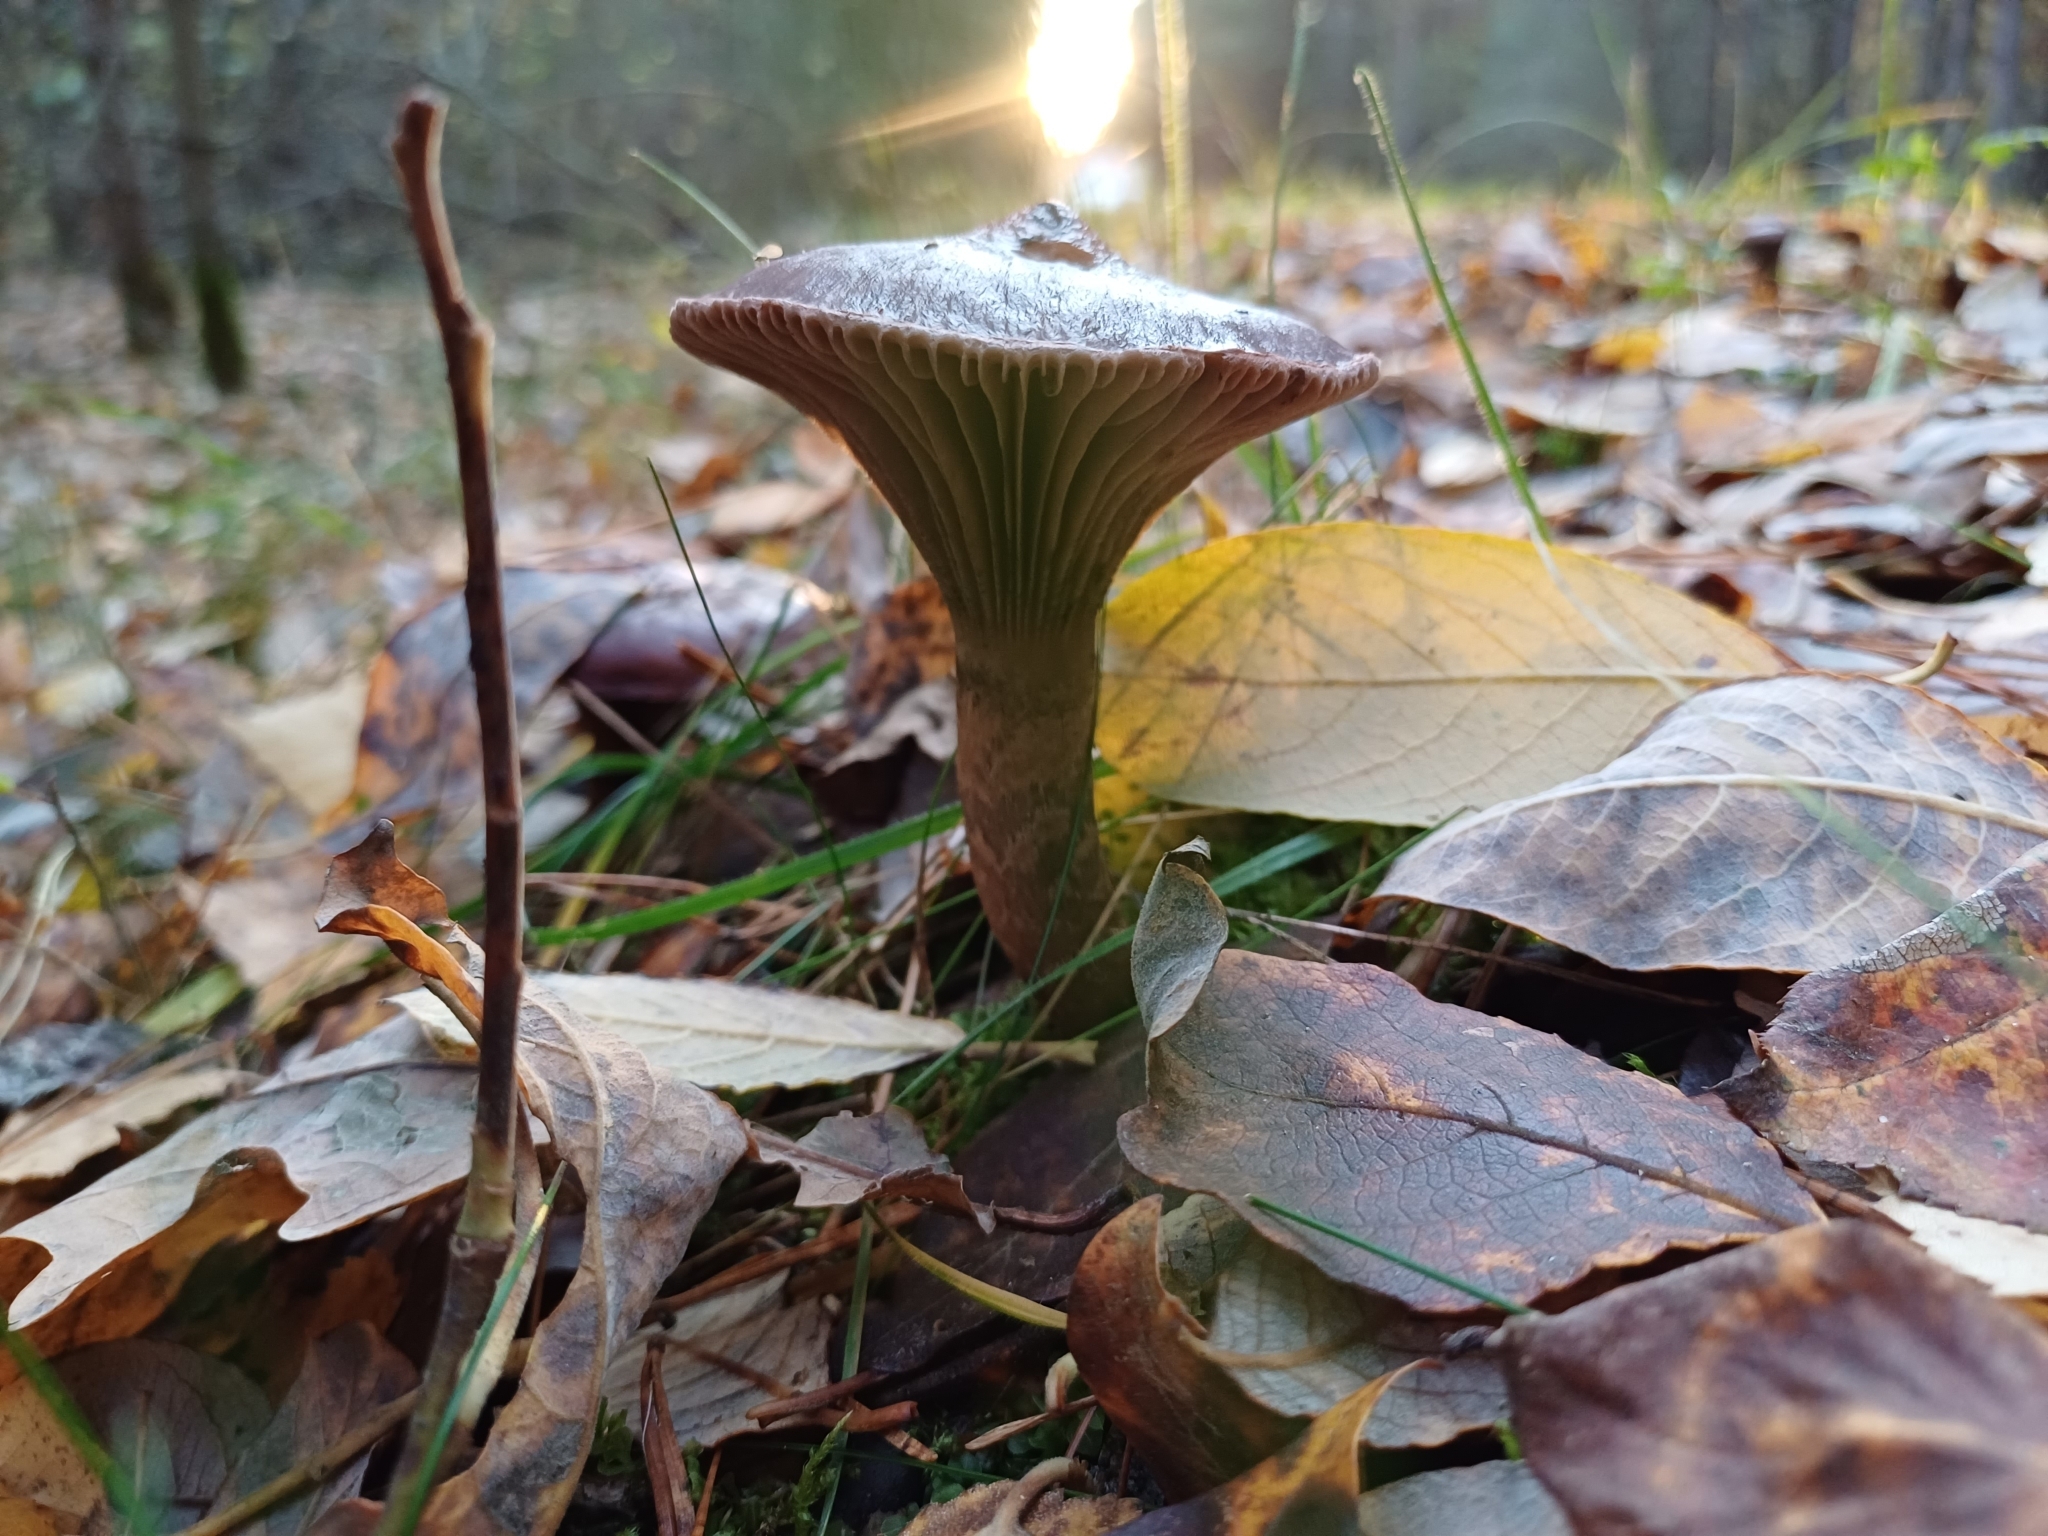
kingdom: Fungi
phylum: Basidiomycota
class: Agaricomycetes
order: Boletales
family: Gomphidiaceae
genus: Chroogomphus
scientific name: Chroogomphus rutilus
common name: Copper spike
